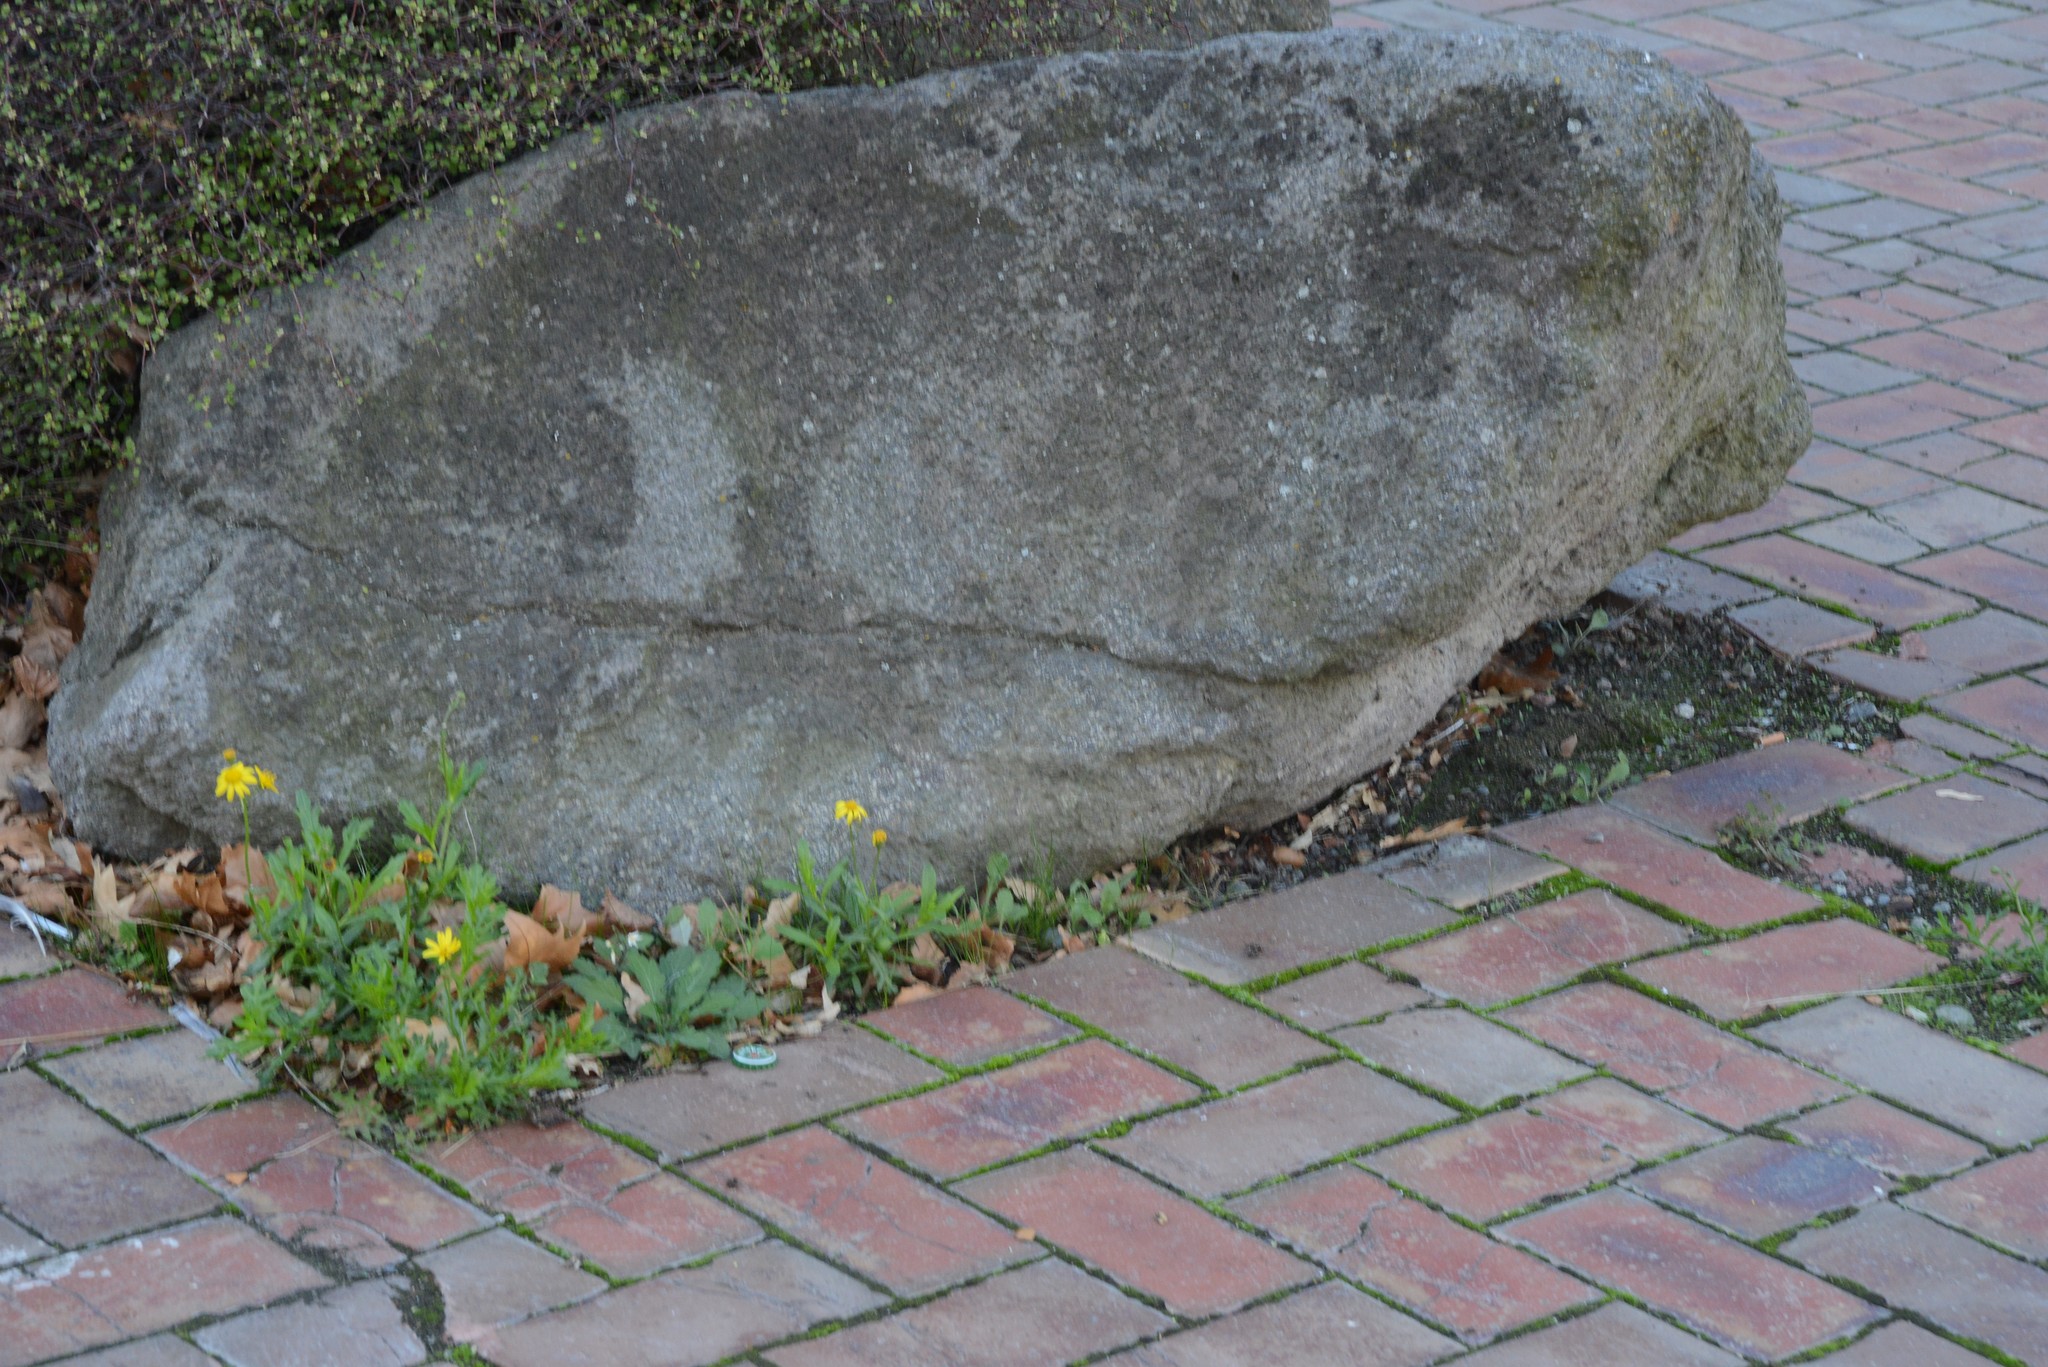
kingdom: Plantae
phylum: Tracheophyta
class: Magnoliopsida
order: Asterales
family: Asteraceae
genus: Senecio
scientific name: Senecio skirrhodon
